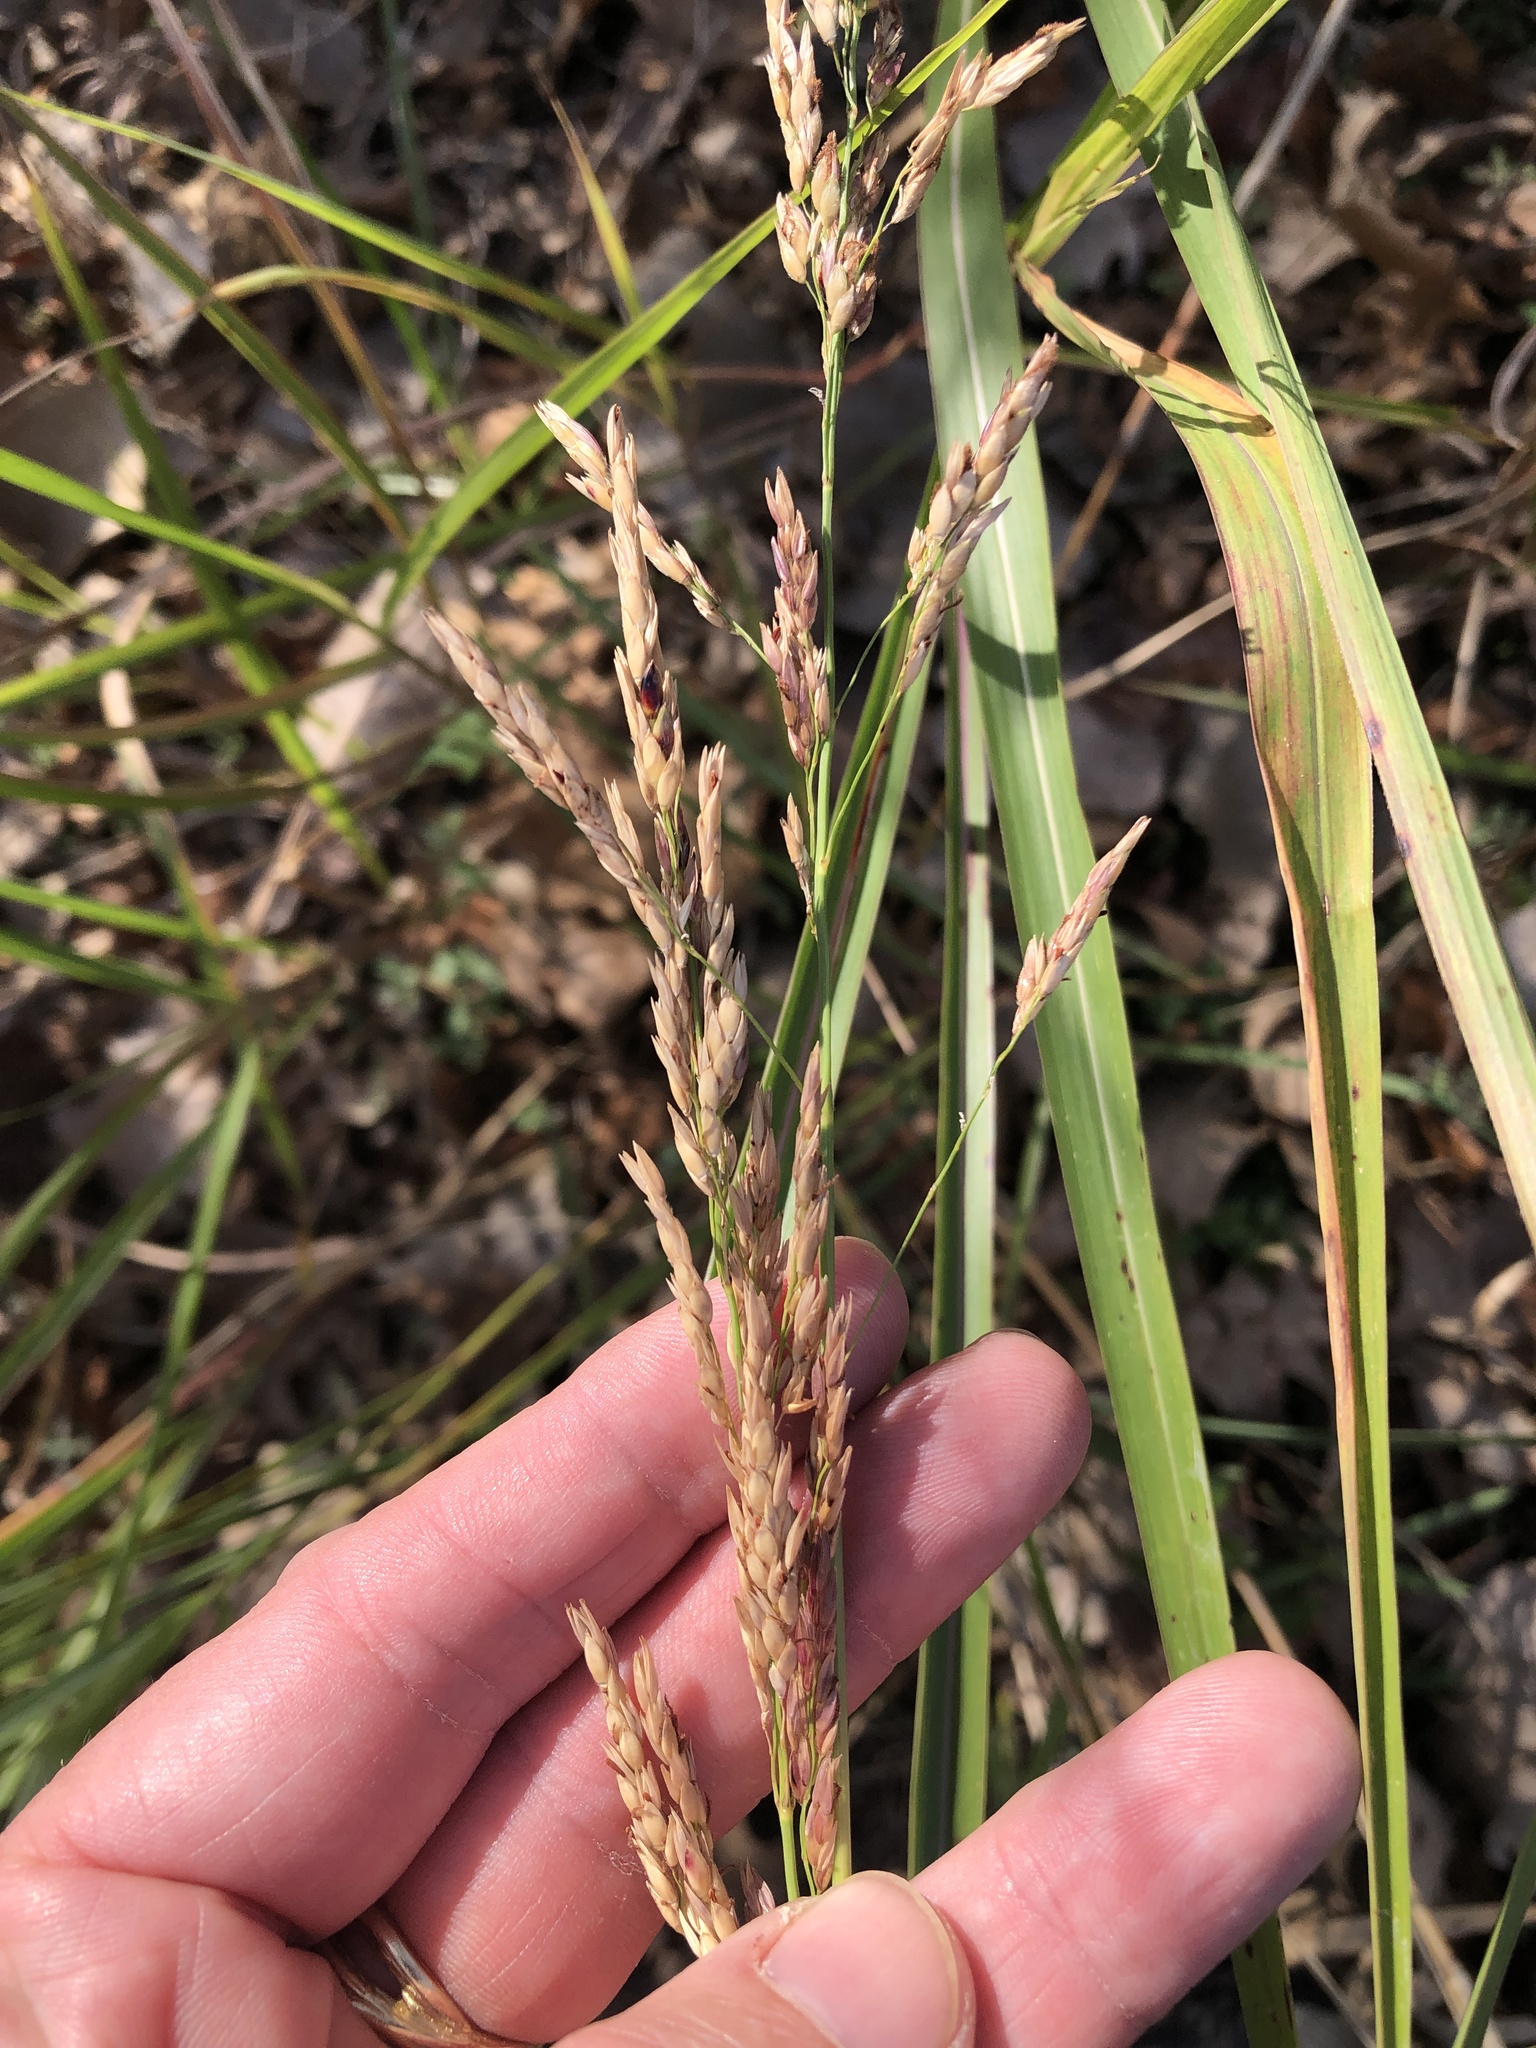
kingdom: Plantae
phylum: Tracheophyta
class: Liliopsida
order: Poales
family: Poaceae
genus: Sorghum
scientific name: Sorghum halepense
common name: Johnson-grass
